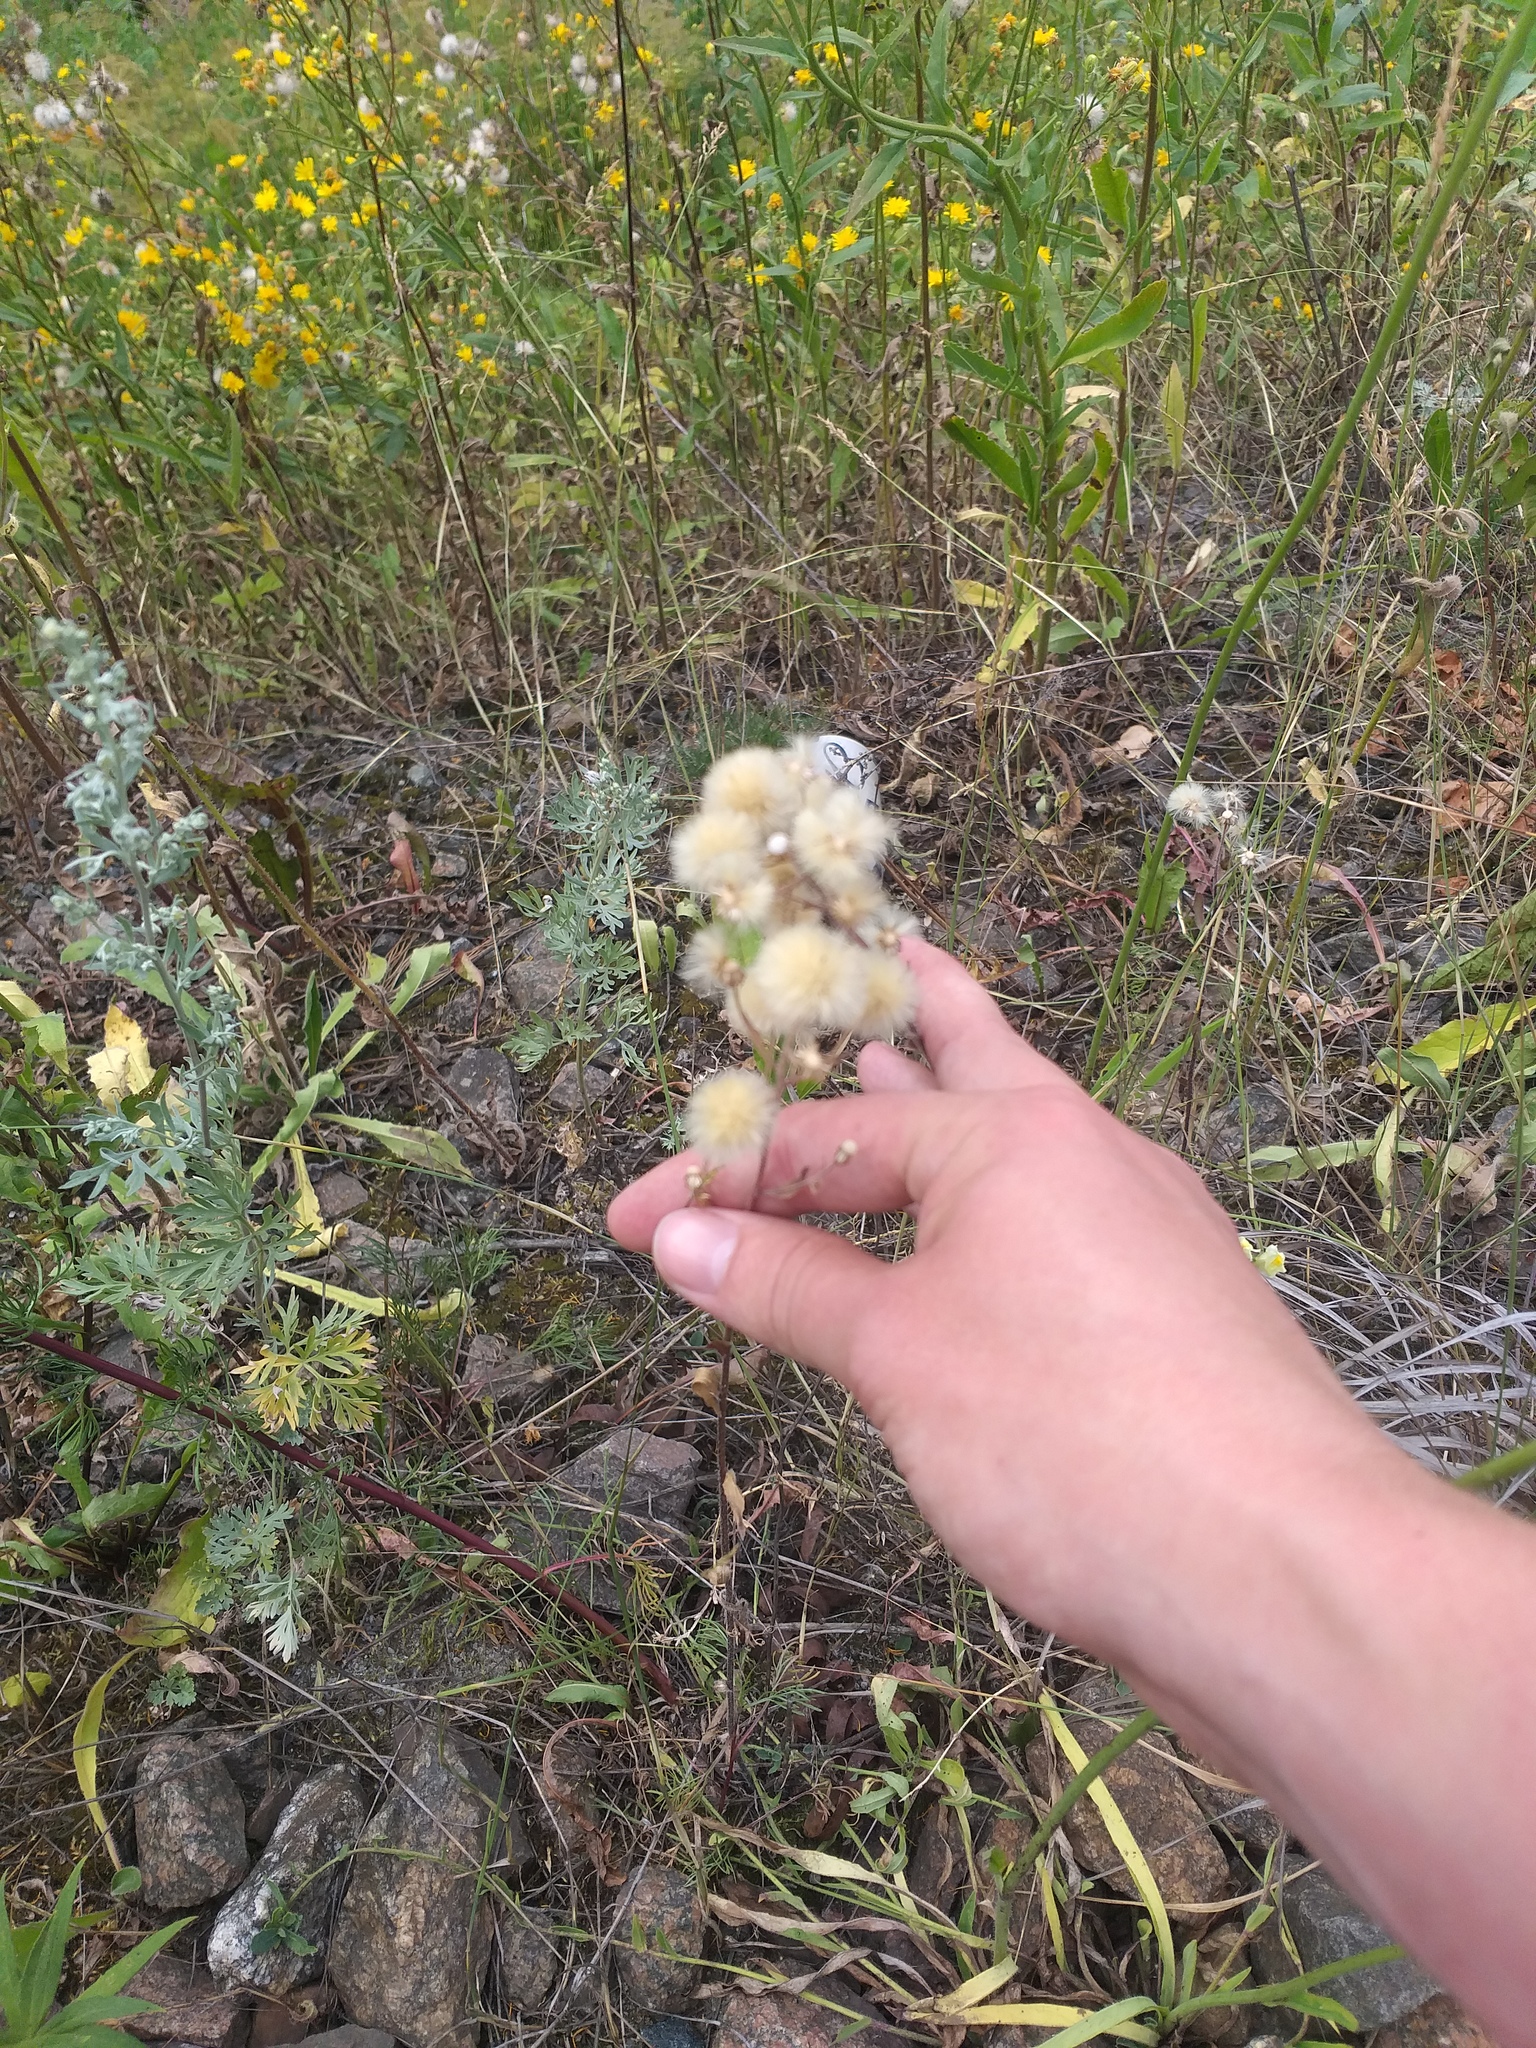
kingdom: Plantae
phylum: Tracheophyta
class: Magnoliopsida
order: Asterales
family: Asteraceae
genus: Erigeron
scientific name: Erigeron acris
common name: Blue fleabane
